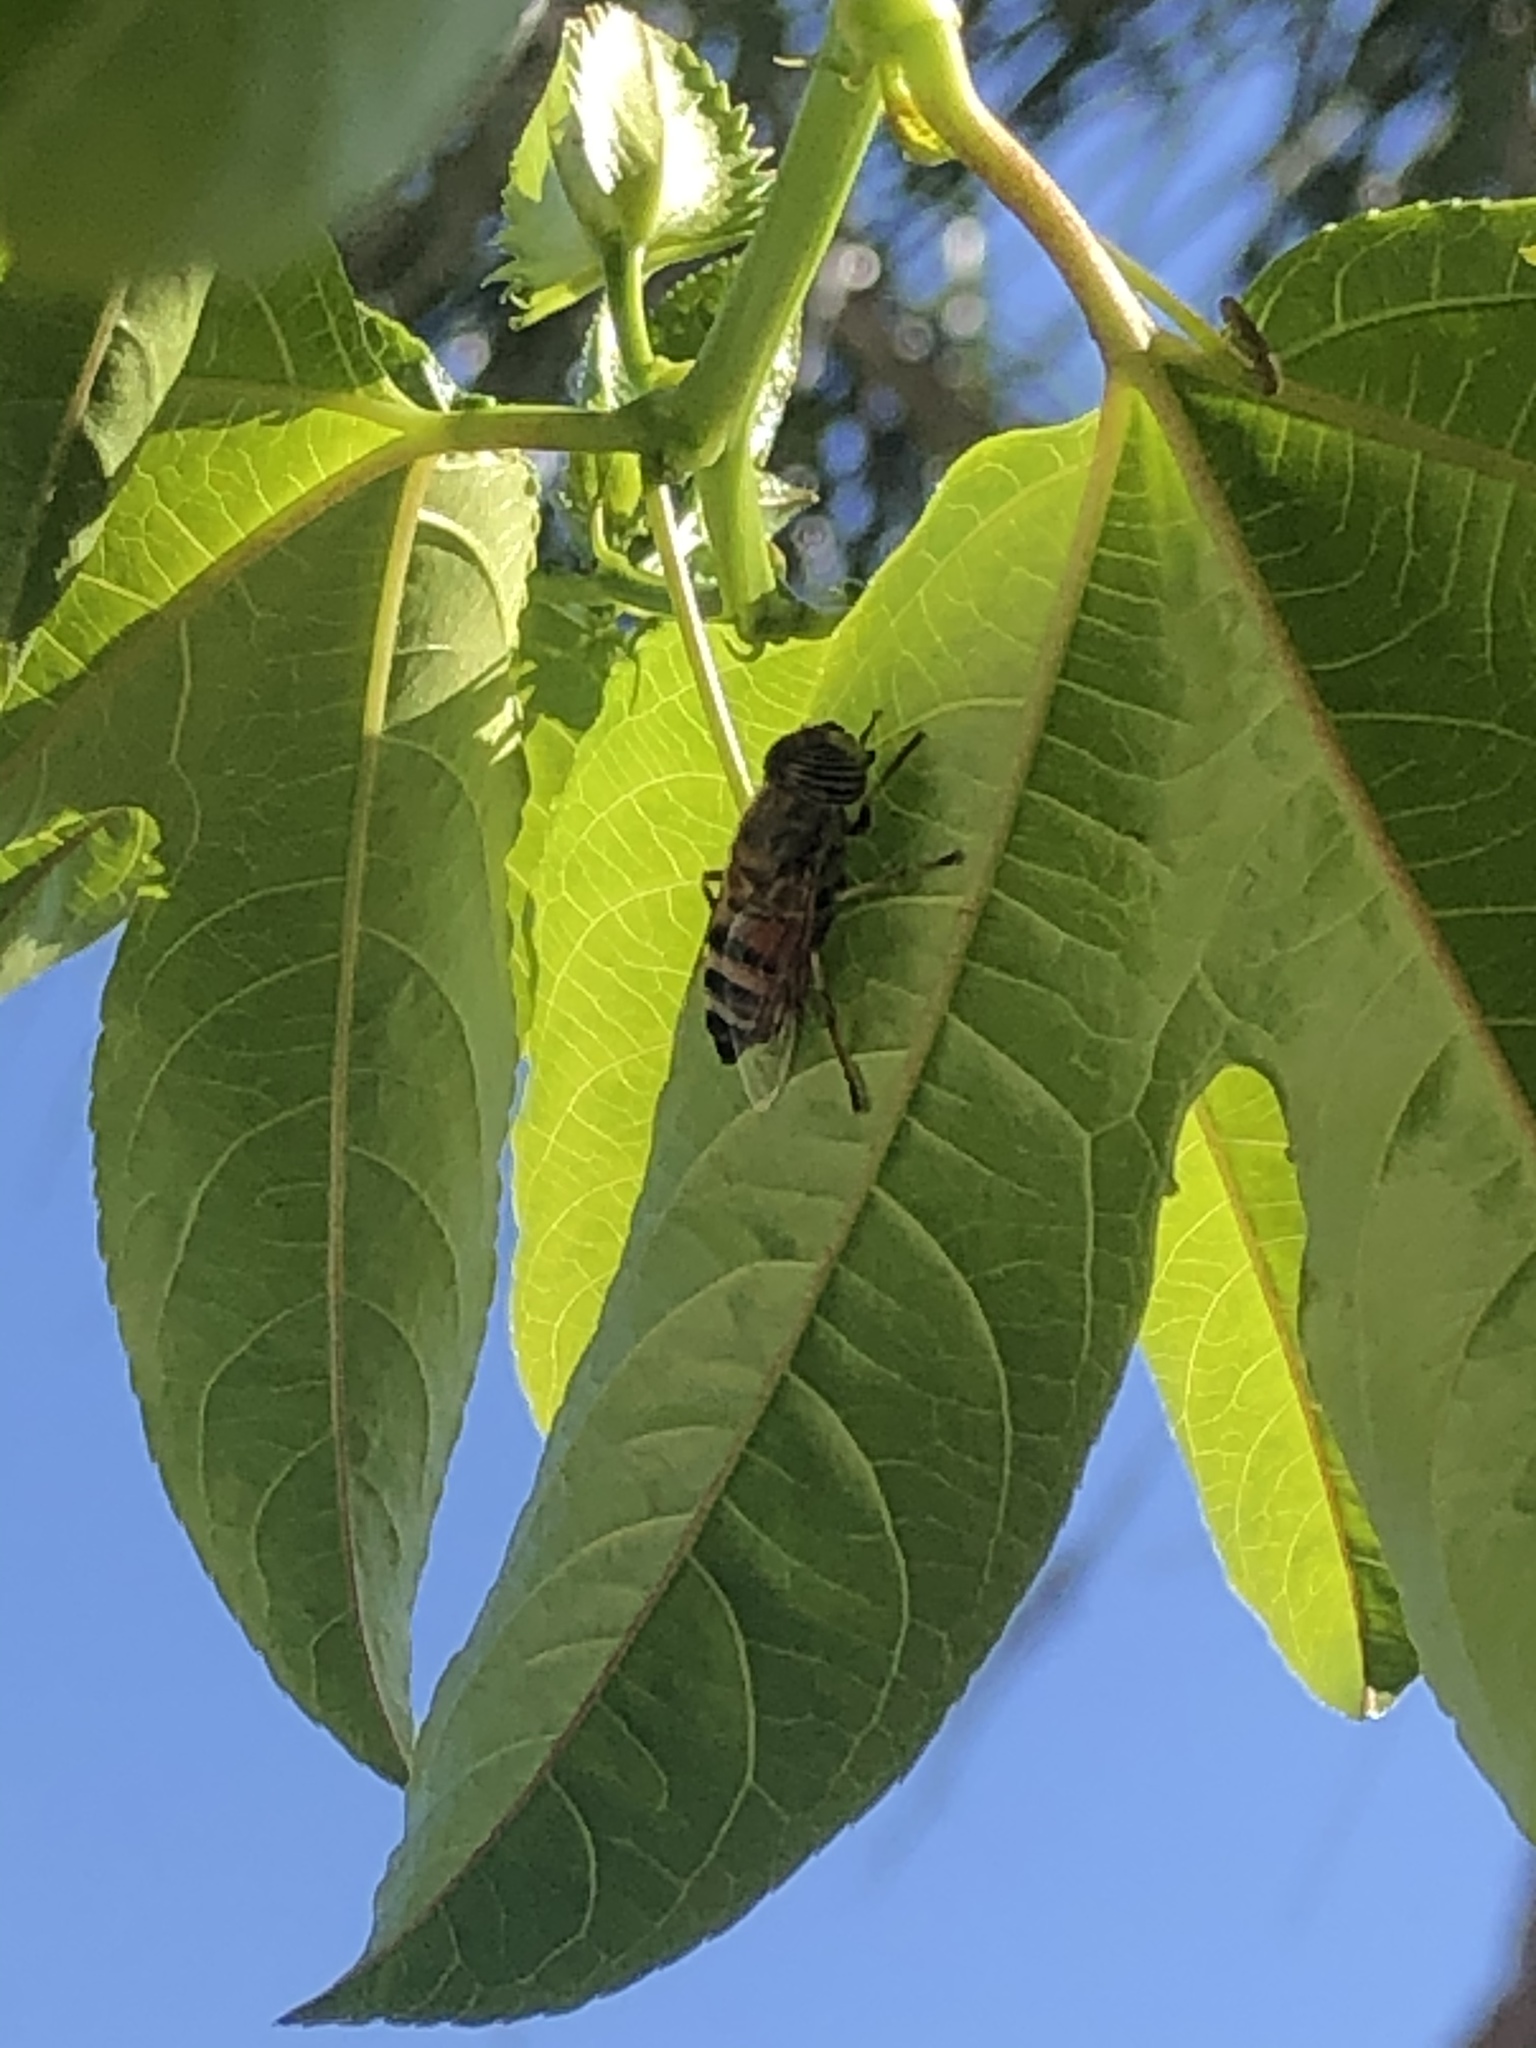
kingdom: Animalia
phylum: Arthropoda
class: Insecta
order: Diptera
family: Syrphidae
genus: Eristalinus
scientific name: Eristalinus taeniops
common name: Syrphid fly
